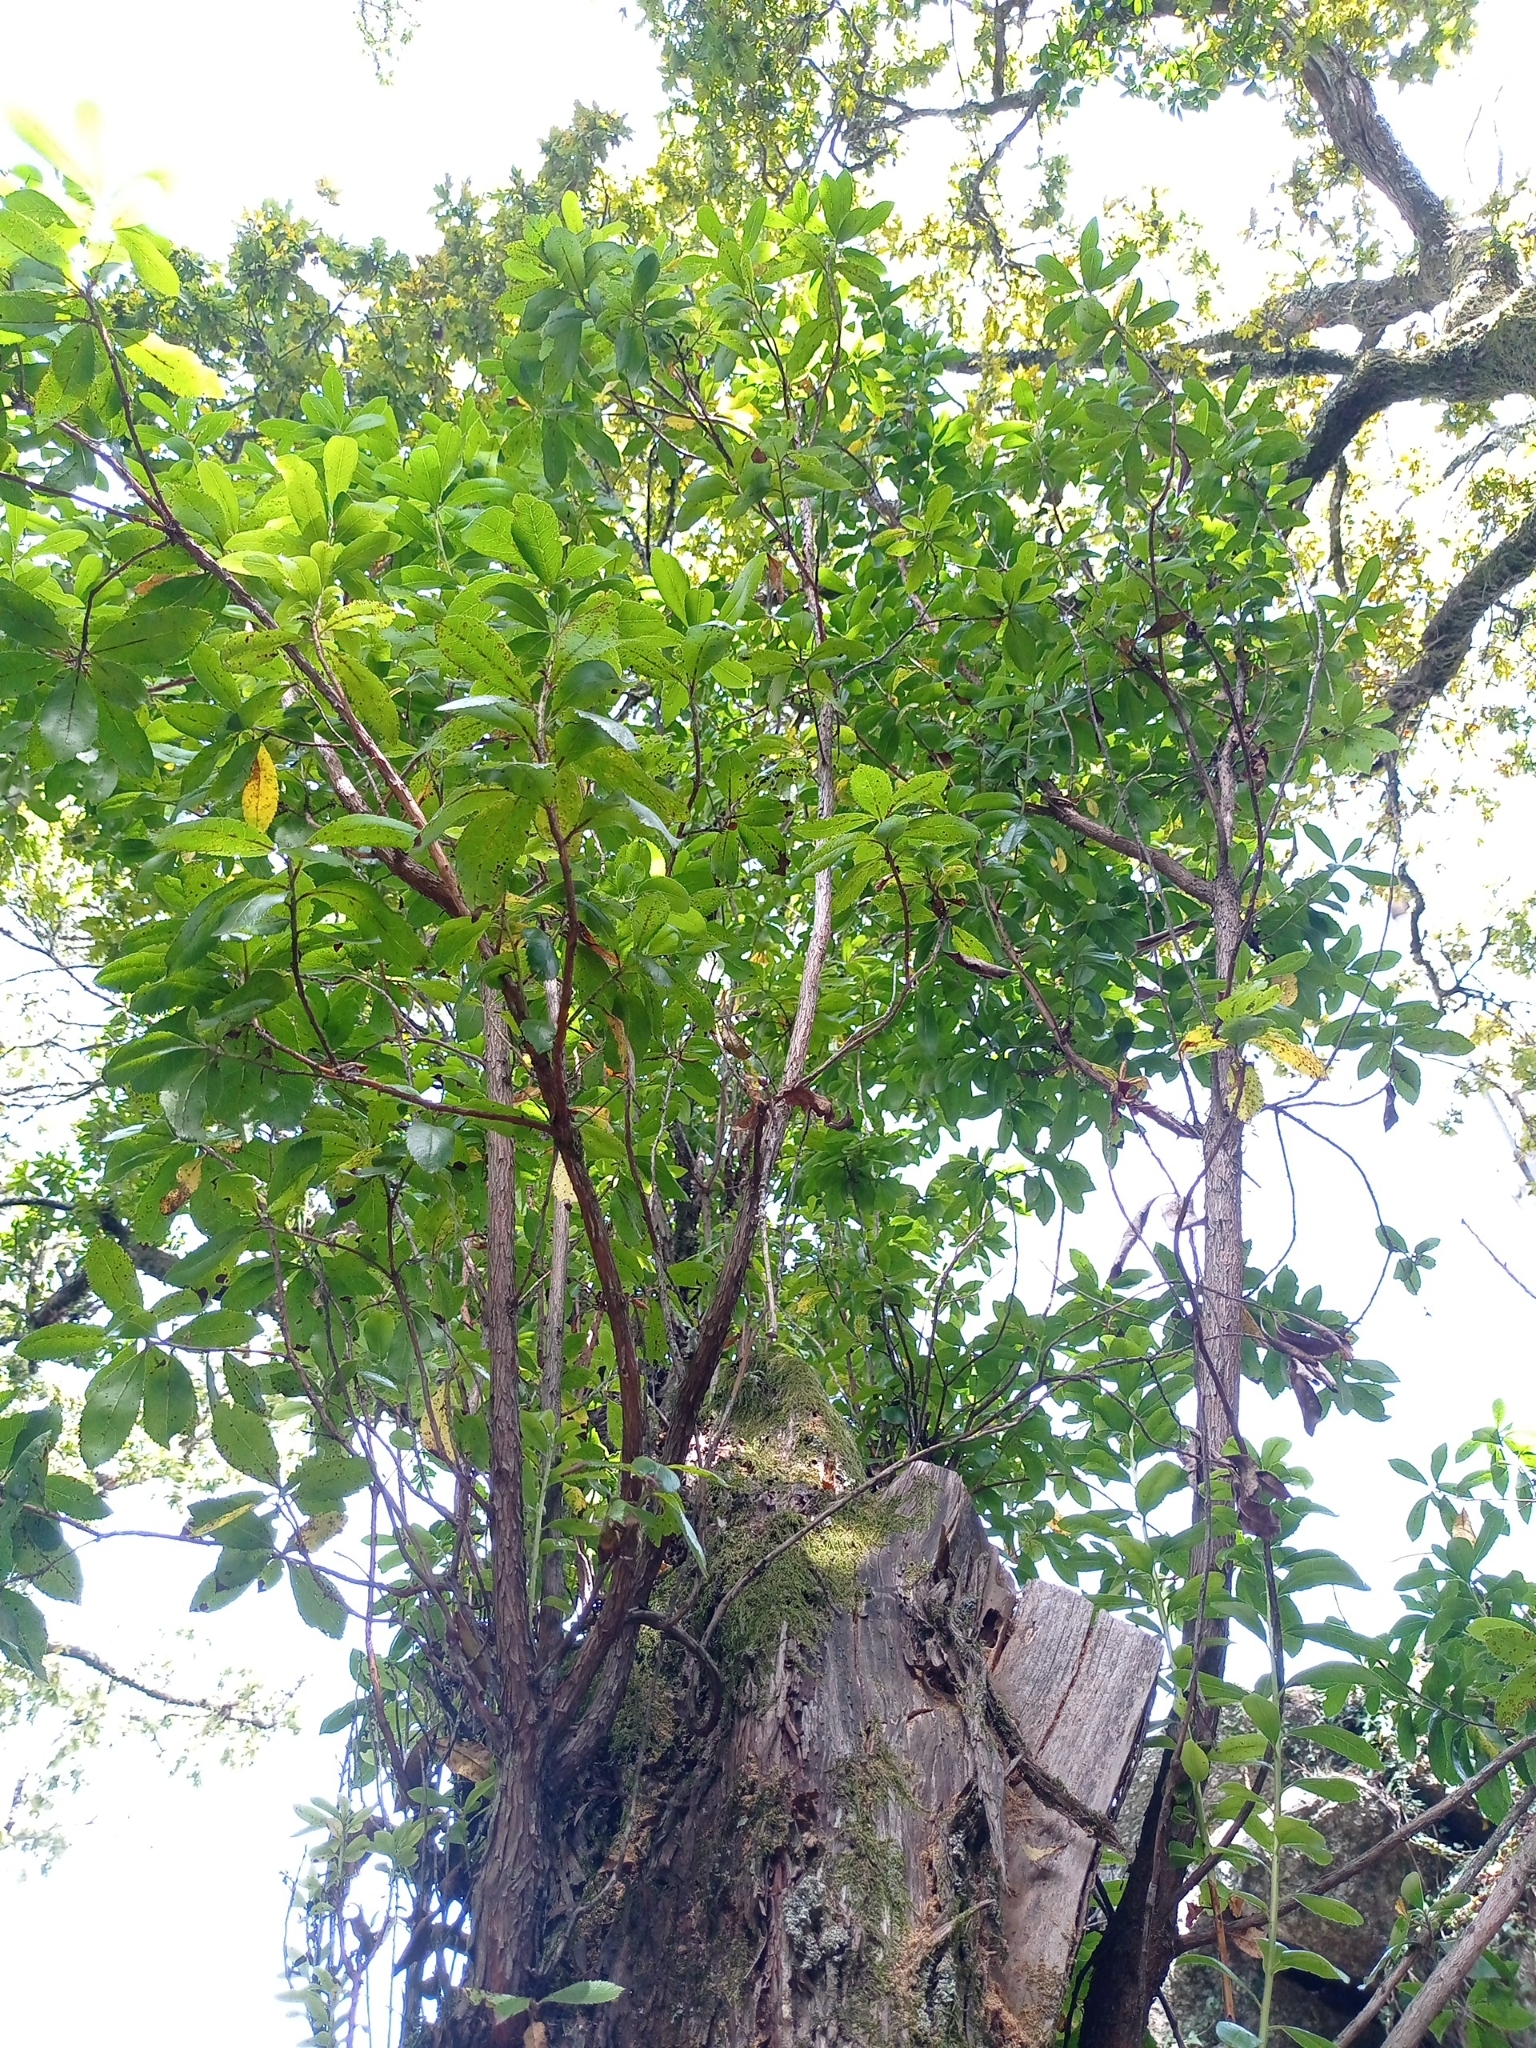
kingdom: Plantae
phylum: Tracheophyta
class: Magnoliopsida
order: Ericales
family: Ericaceae
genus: Arbutus
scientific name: Arbutus unedo
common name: Strawberry-tree
